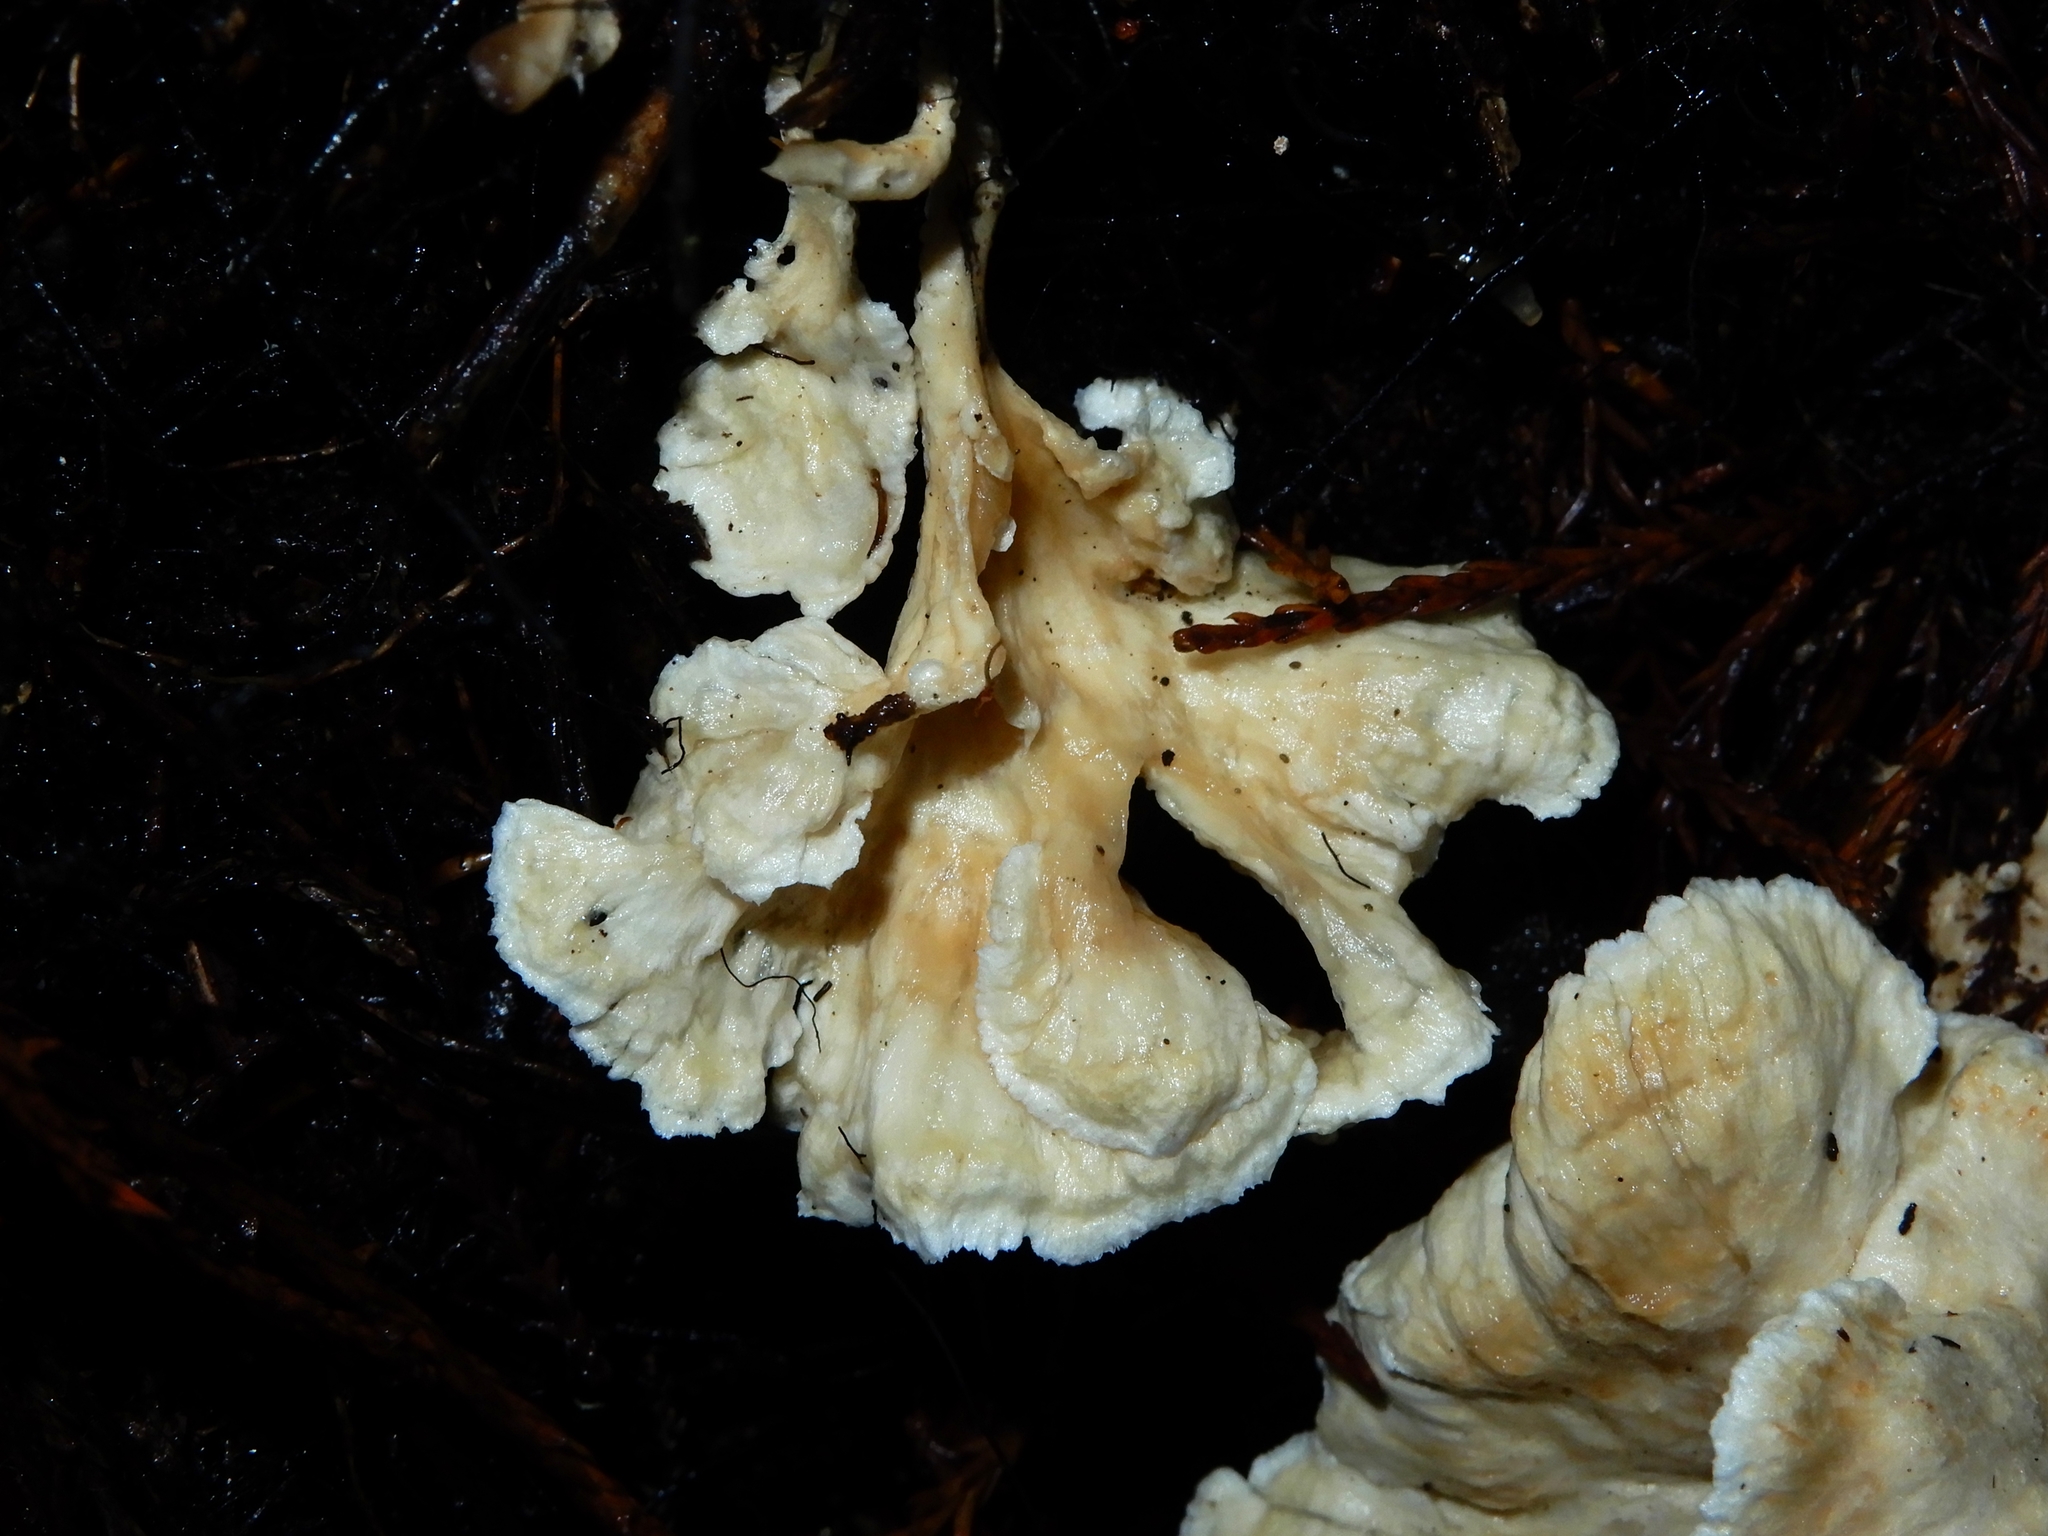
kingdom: Fungi
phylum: Basidiomycota
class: Agaricomycetes
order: Amylocorticiales
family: Amylocorticiaceae
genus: Podoserpula
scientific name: Podoserpula
